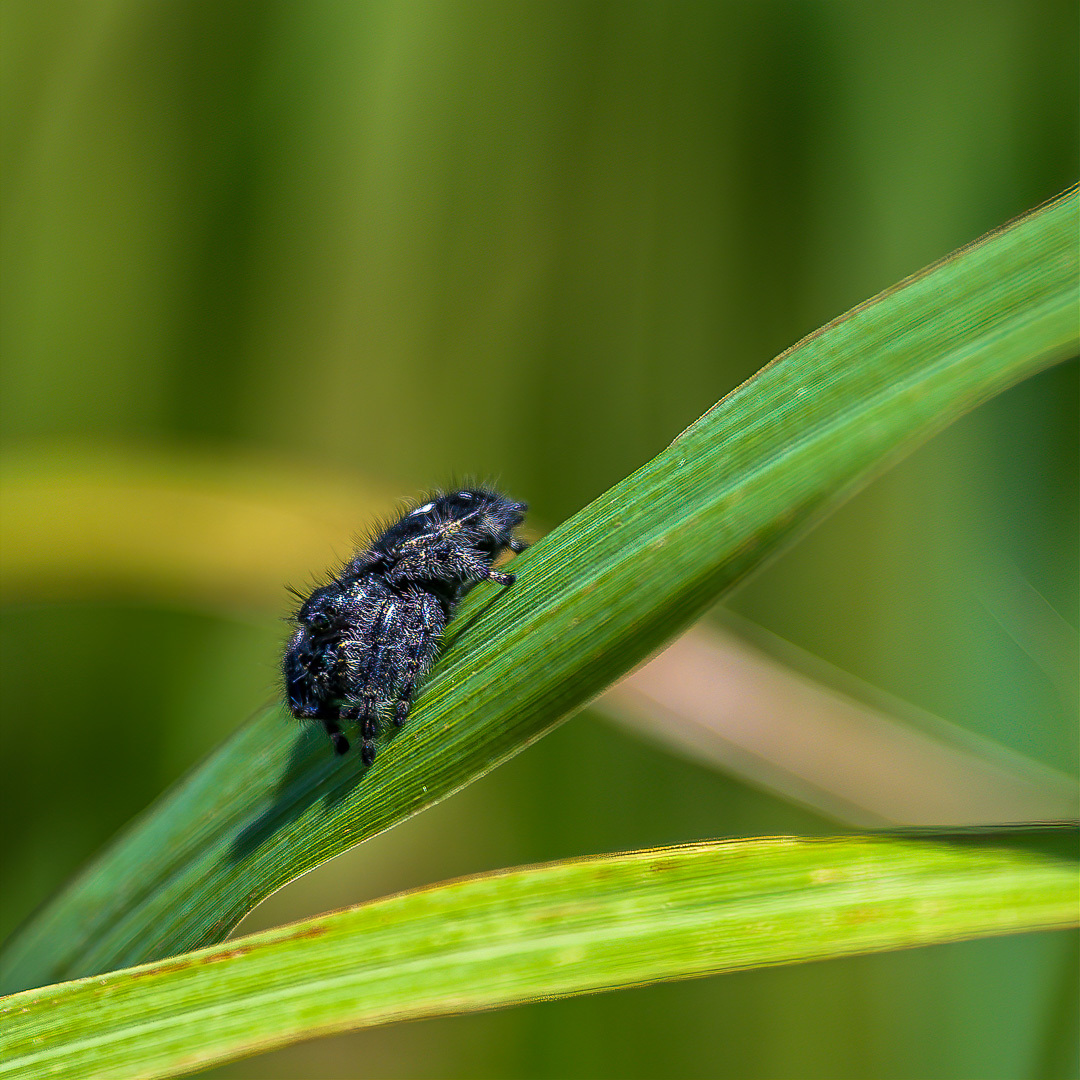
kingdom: Animalia
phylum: Arthropoda
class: Arachnida
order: Araneae
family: Salticidae
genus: Phidippus
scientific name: Phidippus audax
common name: Bold jumper
